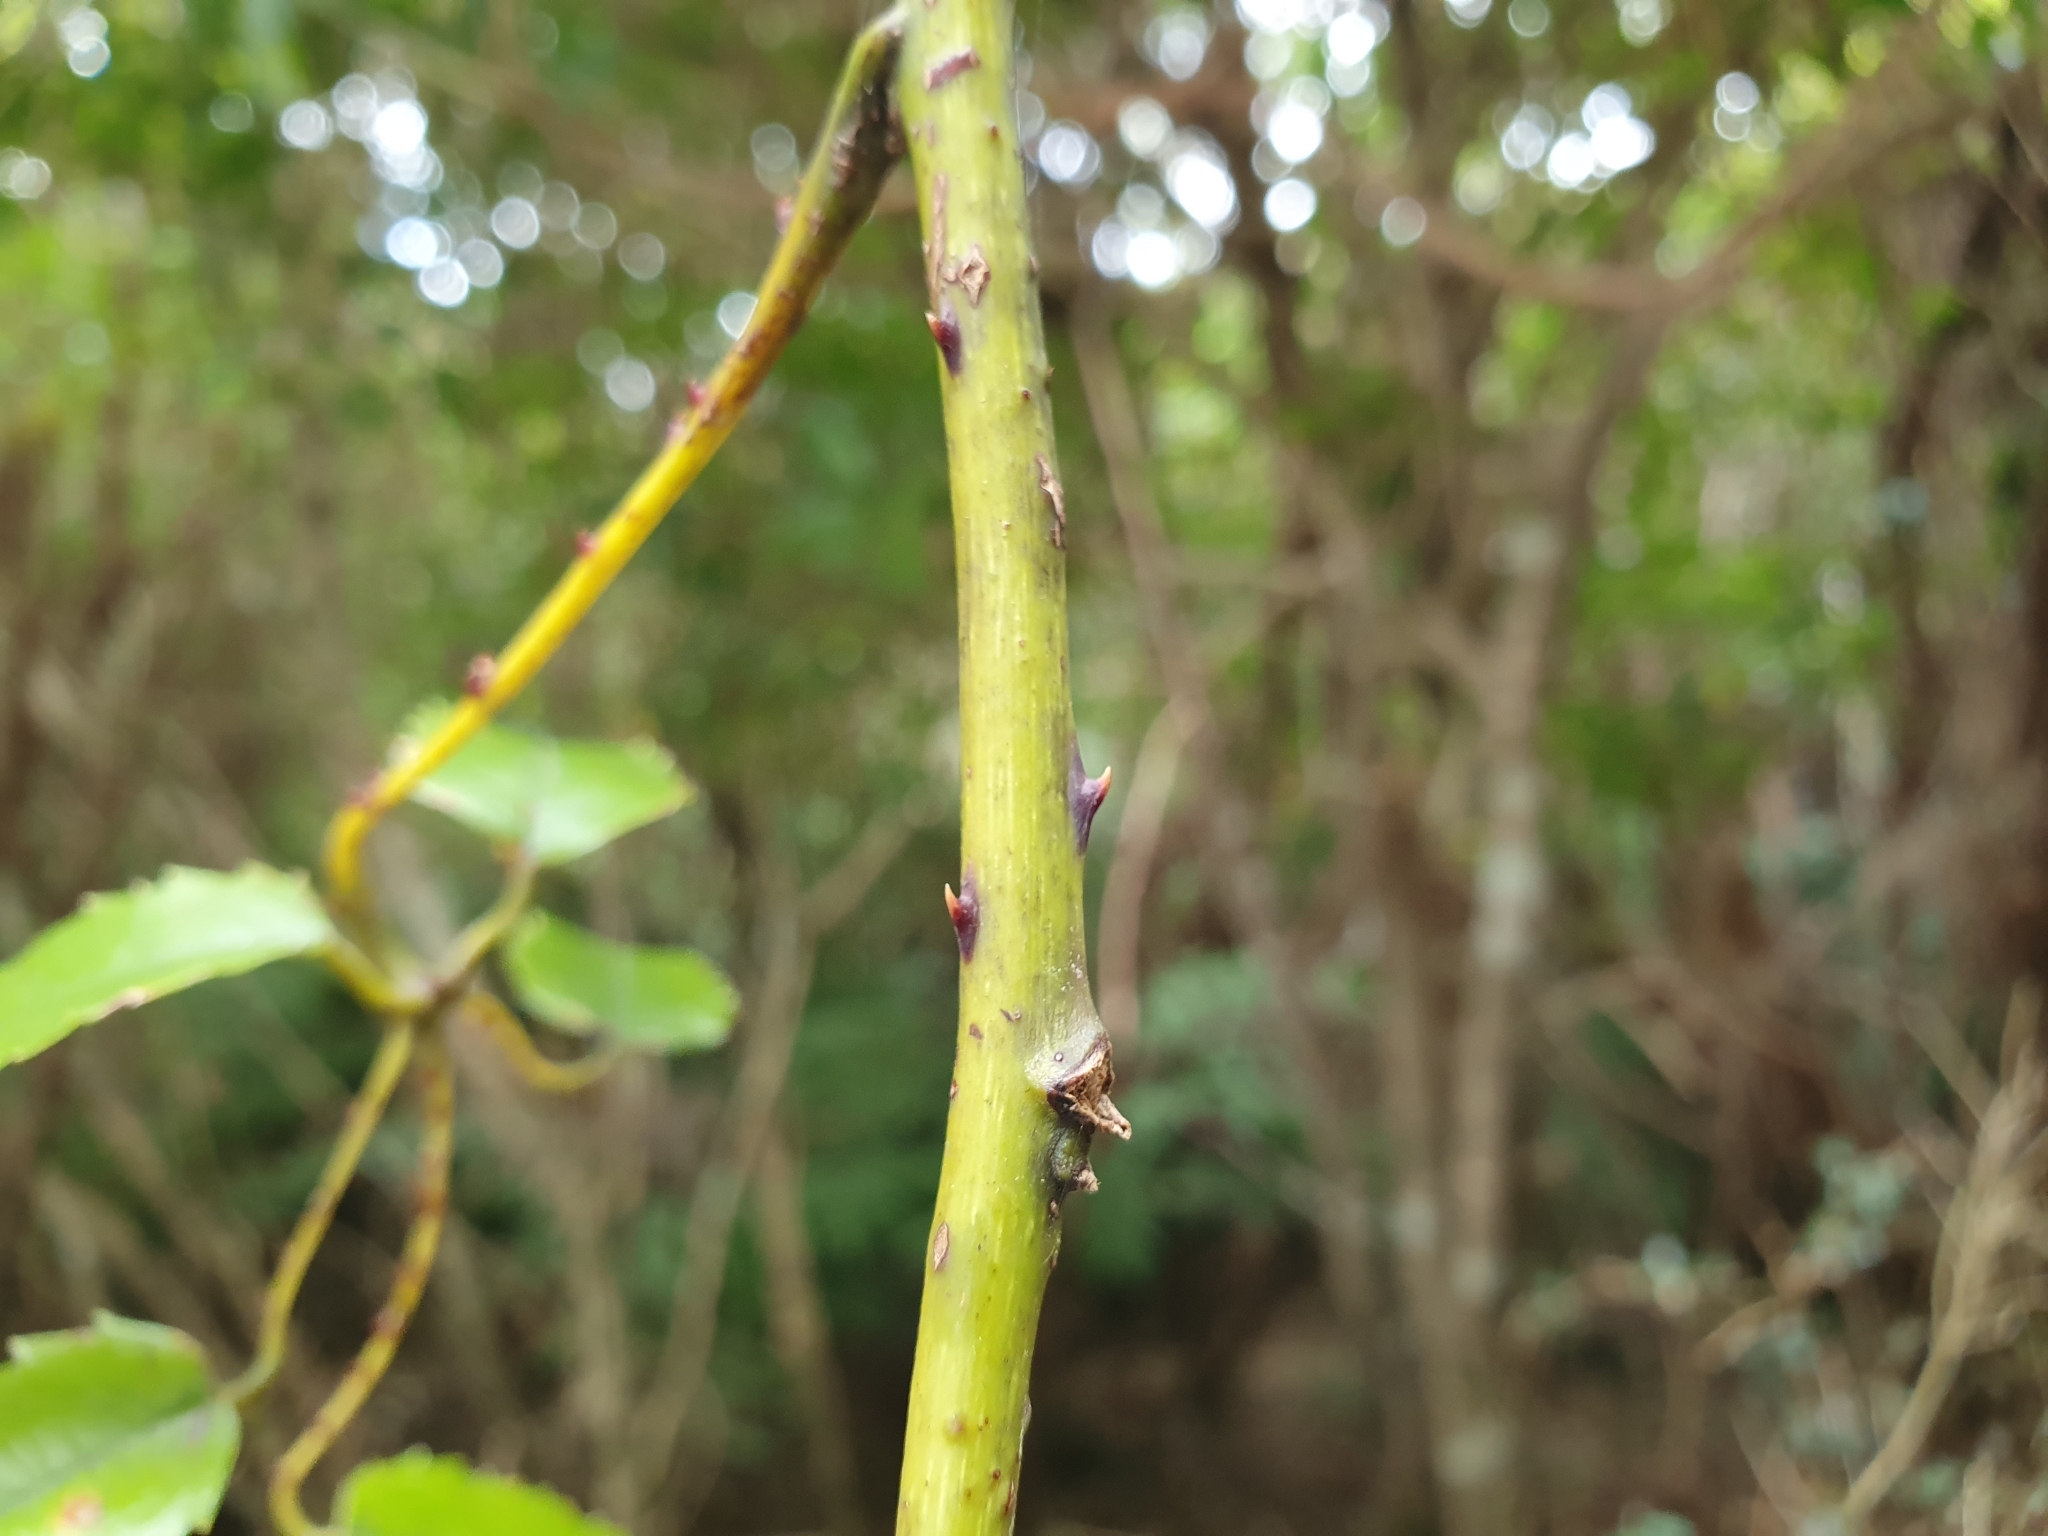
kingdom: Plantae
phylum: Tracheophyta
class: Magnoliopsida
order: Rosales
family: Rosaceae
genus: Rubus
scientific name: Rubus cissoides
